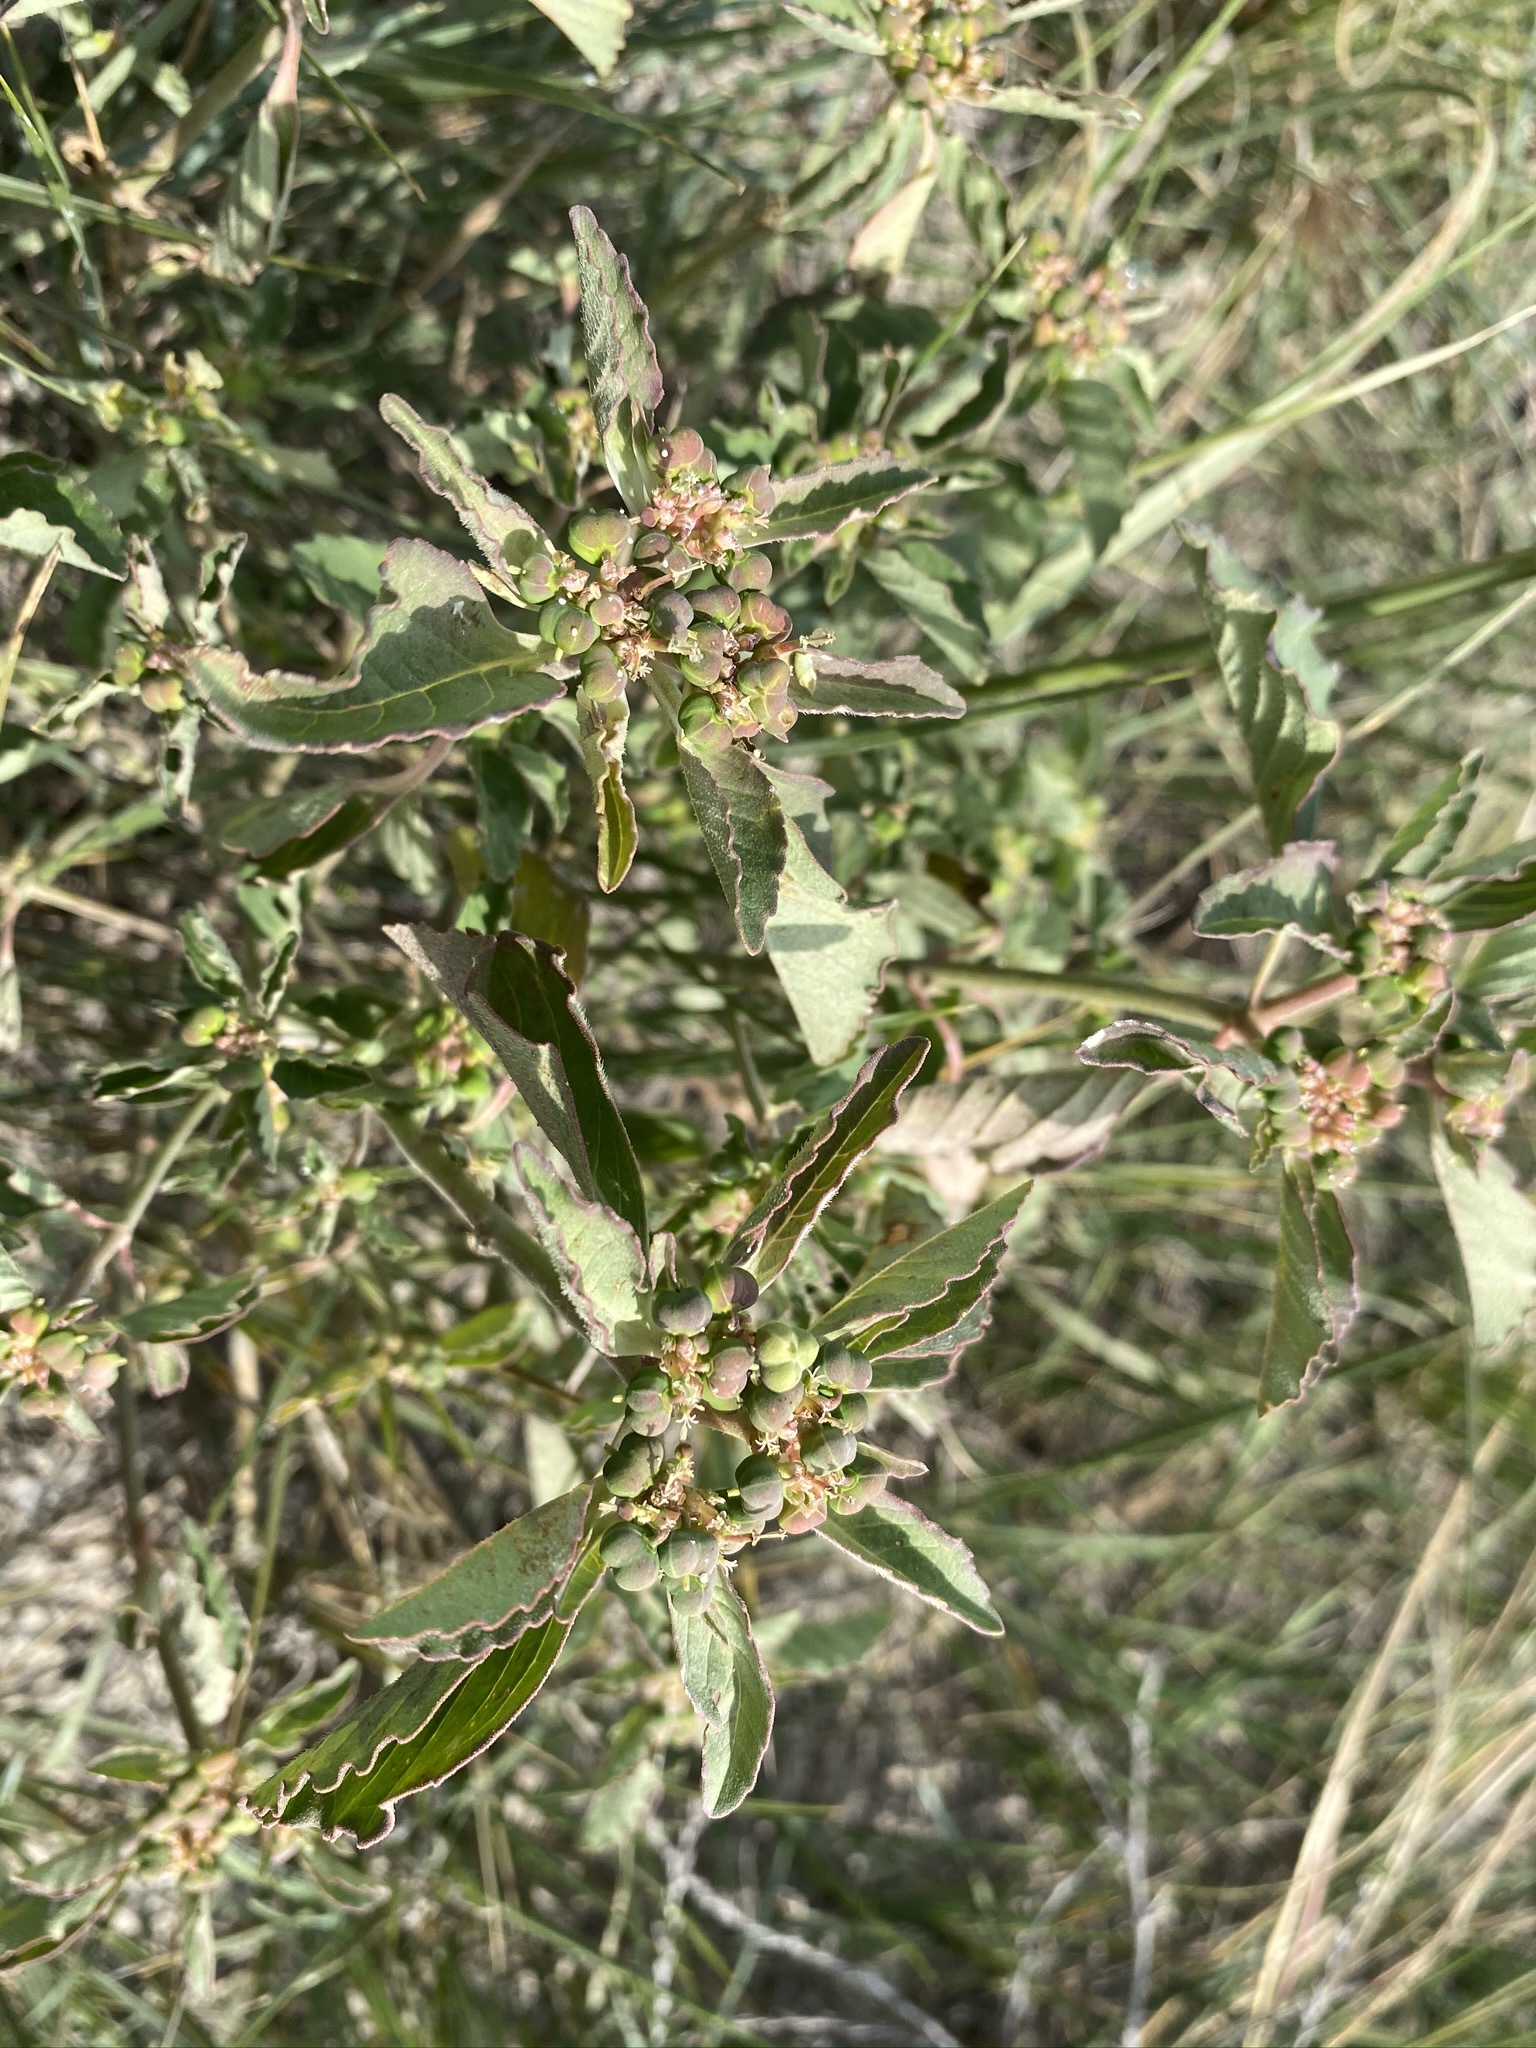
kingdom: Plantae
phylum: Tracheophyta
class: Magnoliopsida
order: Rosales
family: Cannabaceae
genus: Cannabis
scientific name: Cannabis sativa
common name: Hemp
